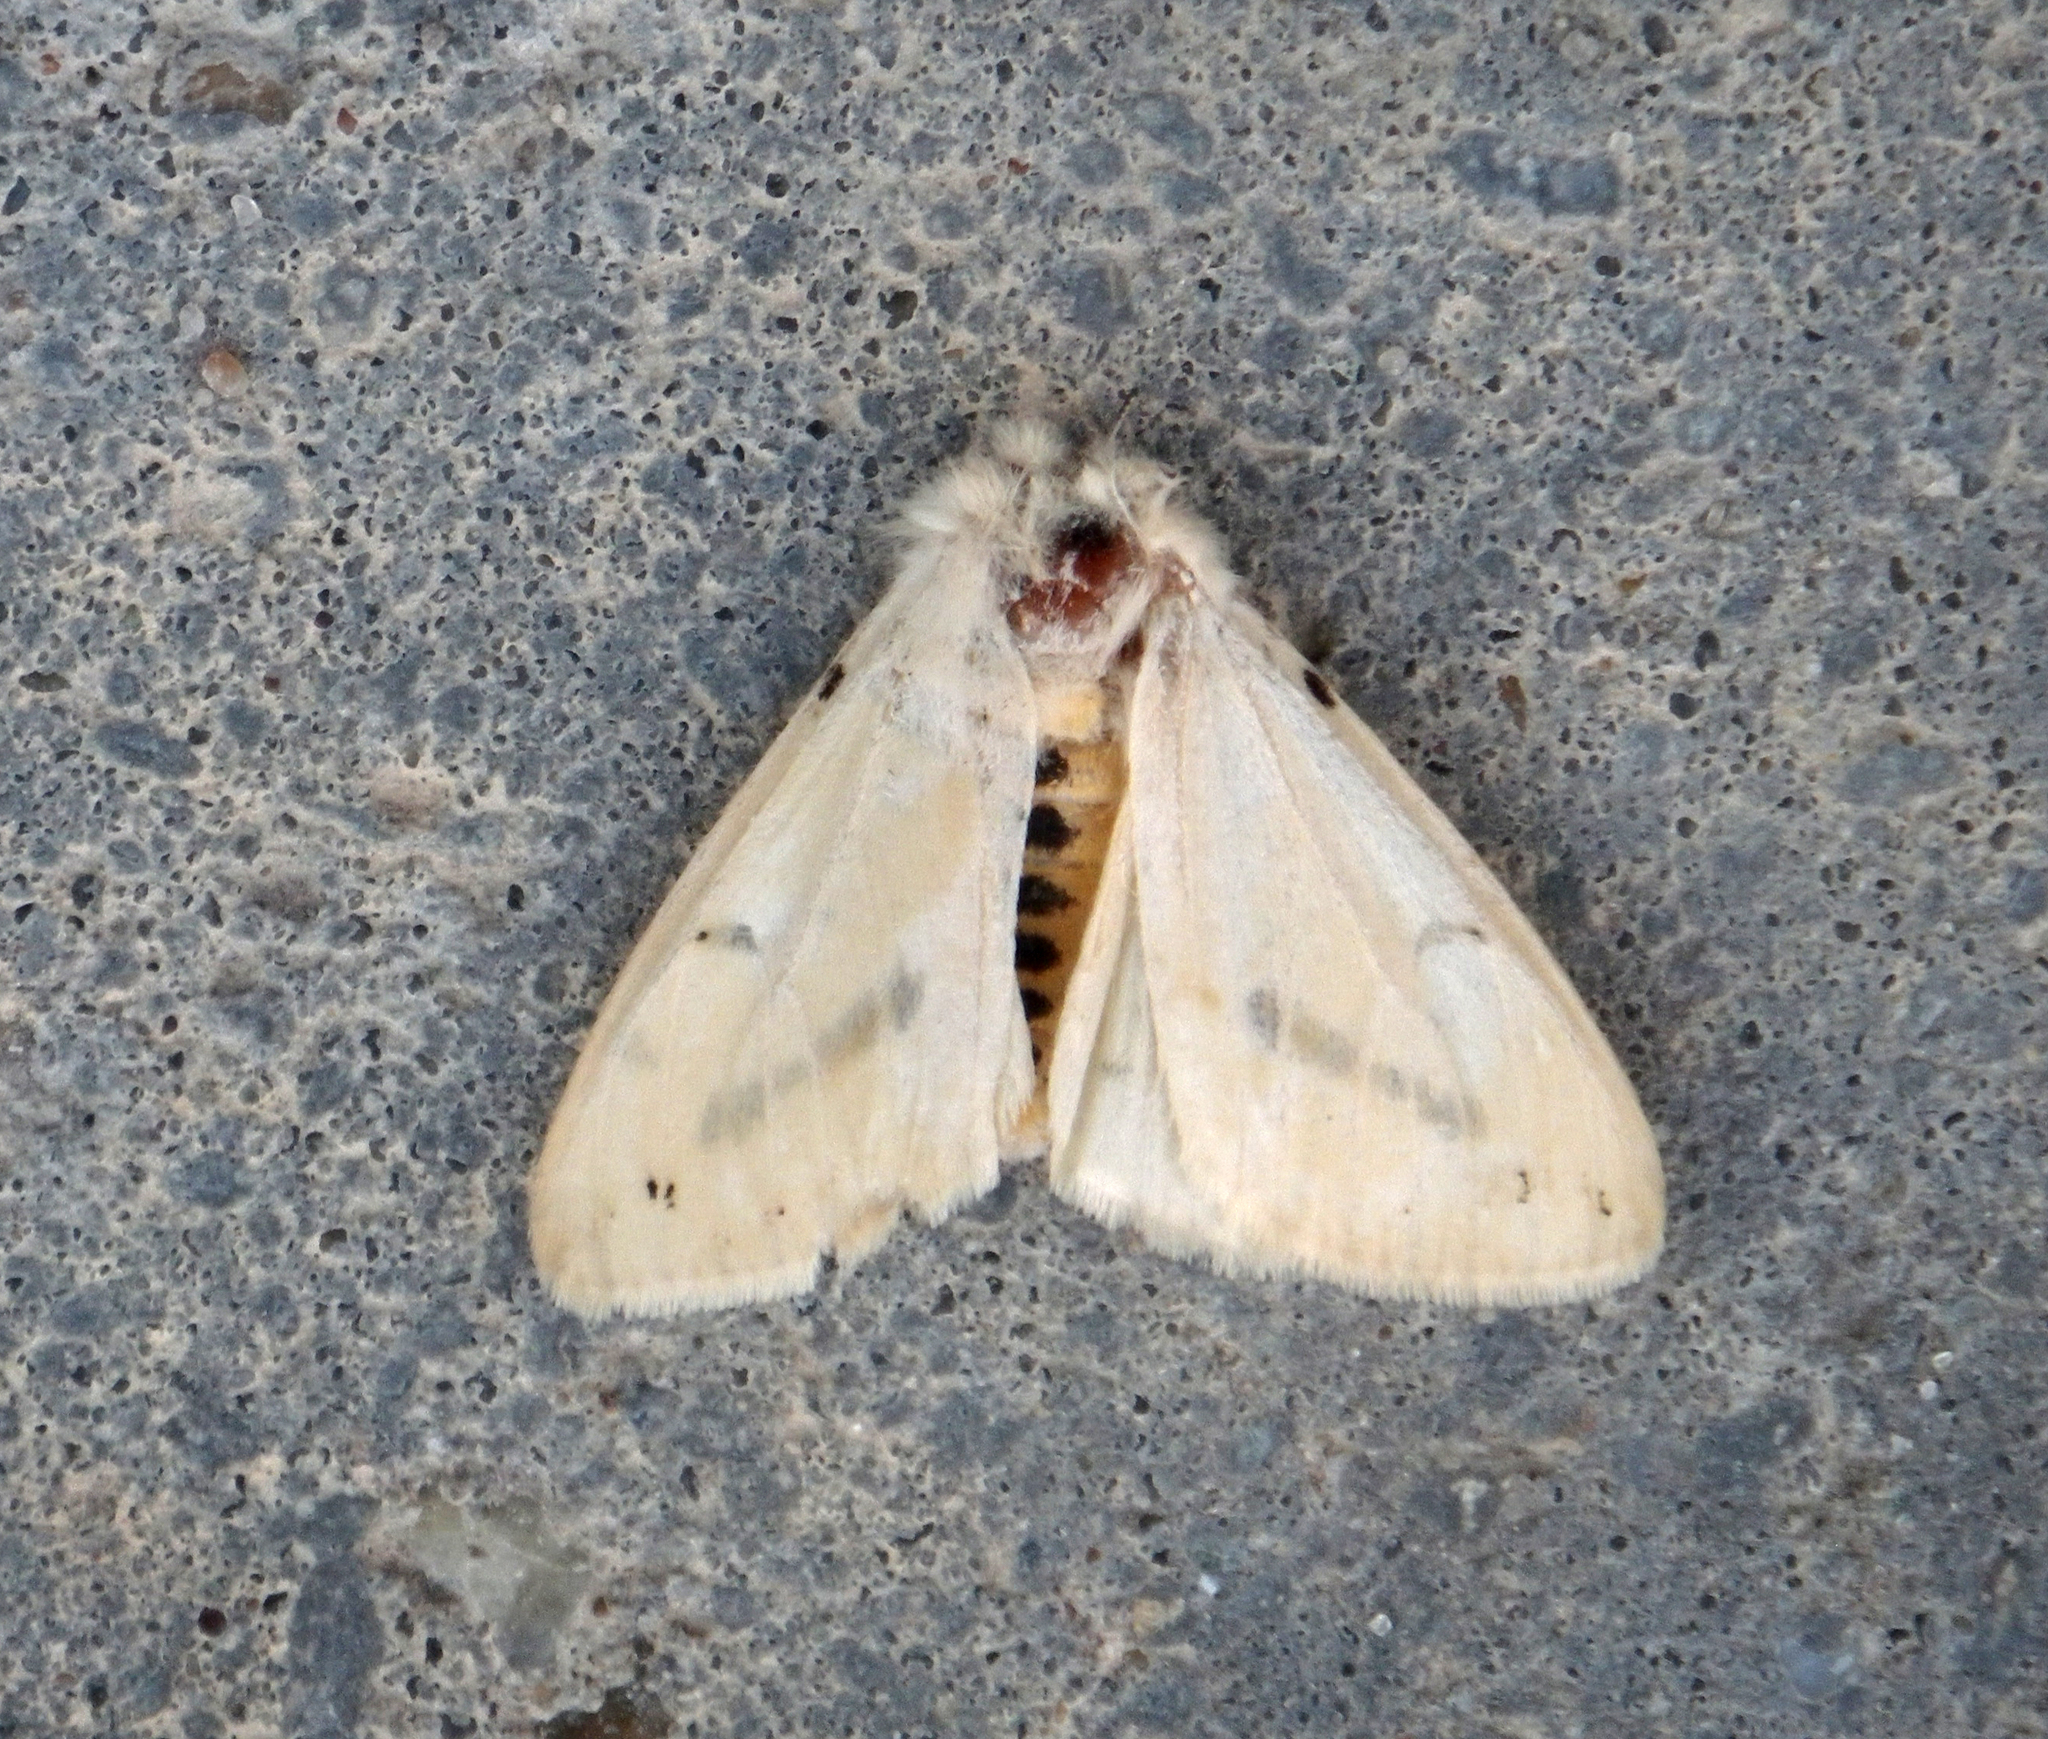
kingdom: Animalia
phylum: Arthropoda
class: Insecta
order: Lepidoptera
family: Erebidae
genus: Spilarctia
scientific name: Spilarctia lutea
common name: Buff ermine
